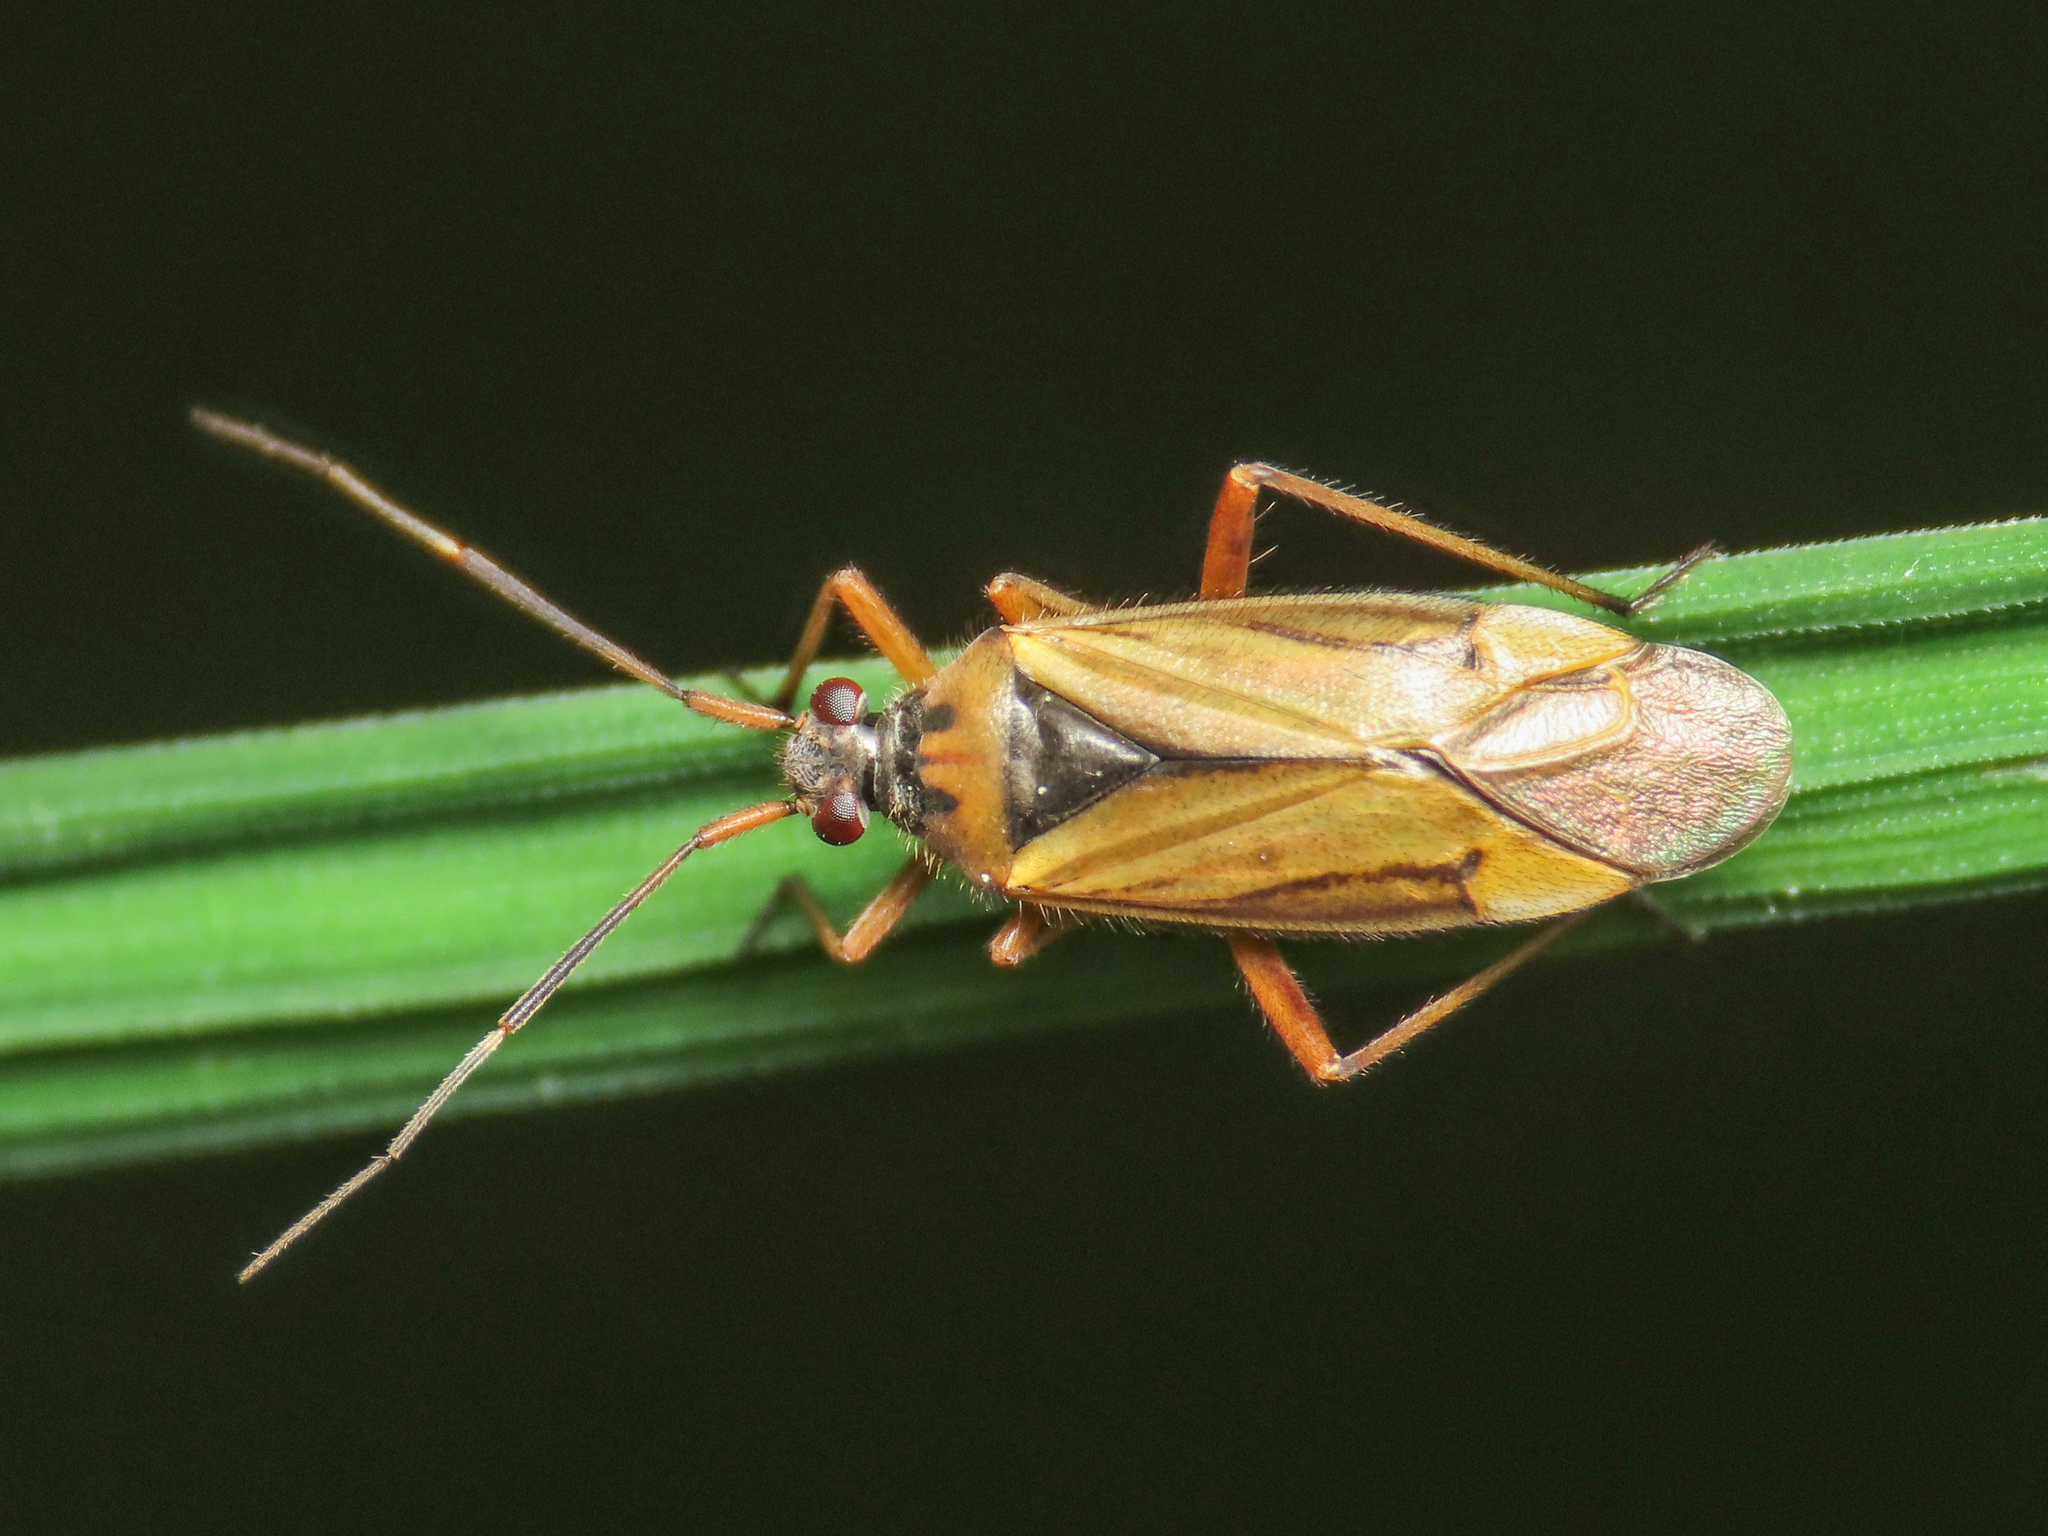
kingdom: Animalia
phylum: Arthropoda
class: Insecta
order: Hemiptera
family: Miridae
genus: Horwathia
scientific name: Horwathia lineolata
